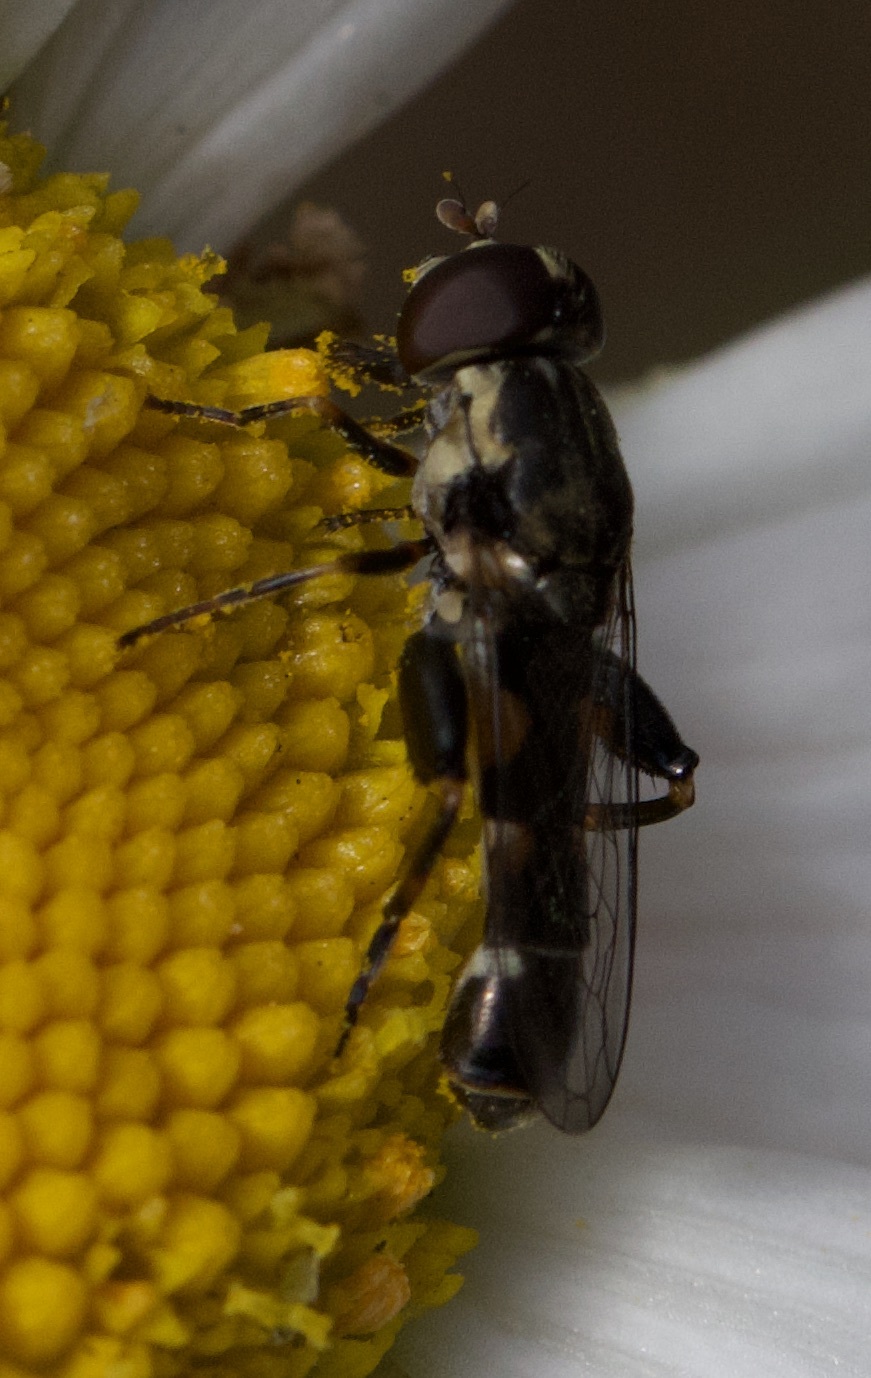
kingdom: Animalia
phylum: Arthropoda
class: Insecta
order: Diptera
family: Syrphidae
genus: Syritta
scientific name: Syritta pipiens
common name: Hover fly
